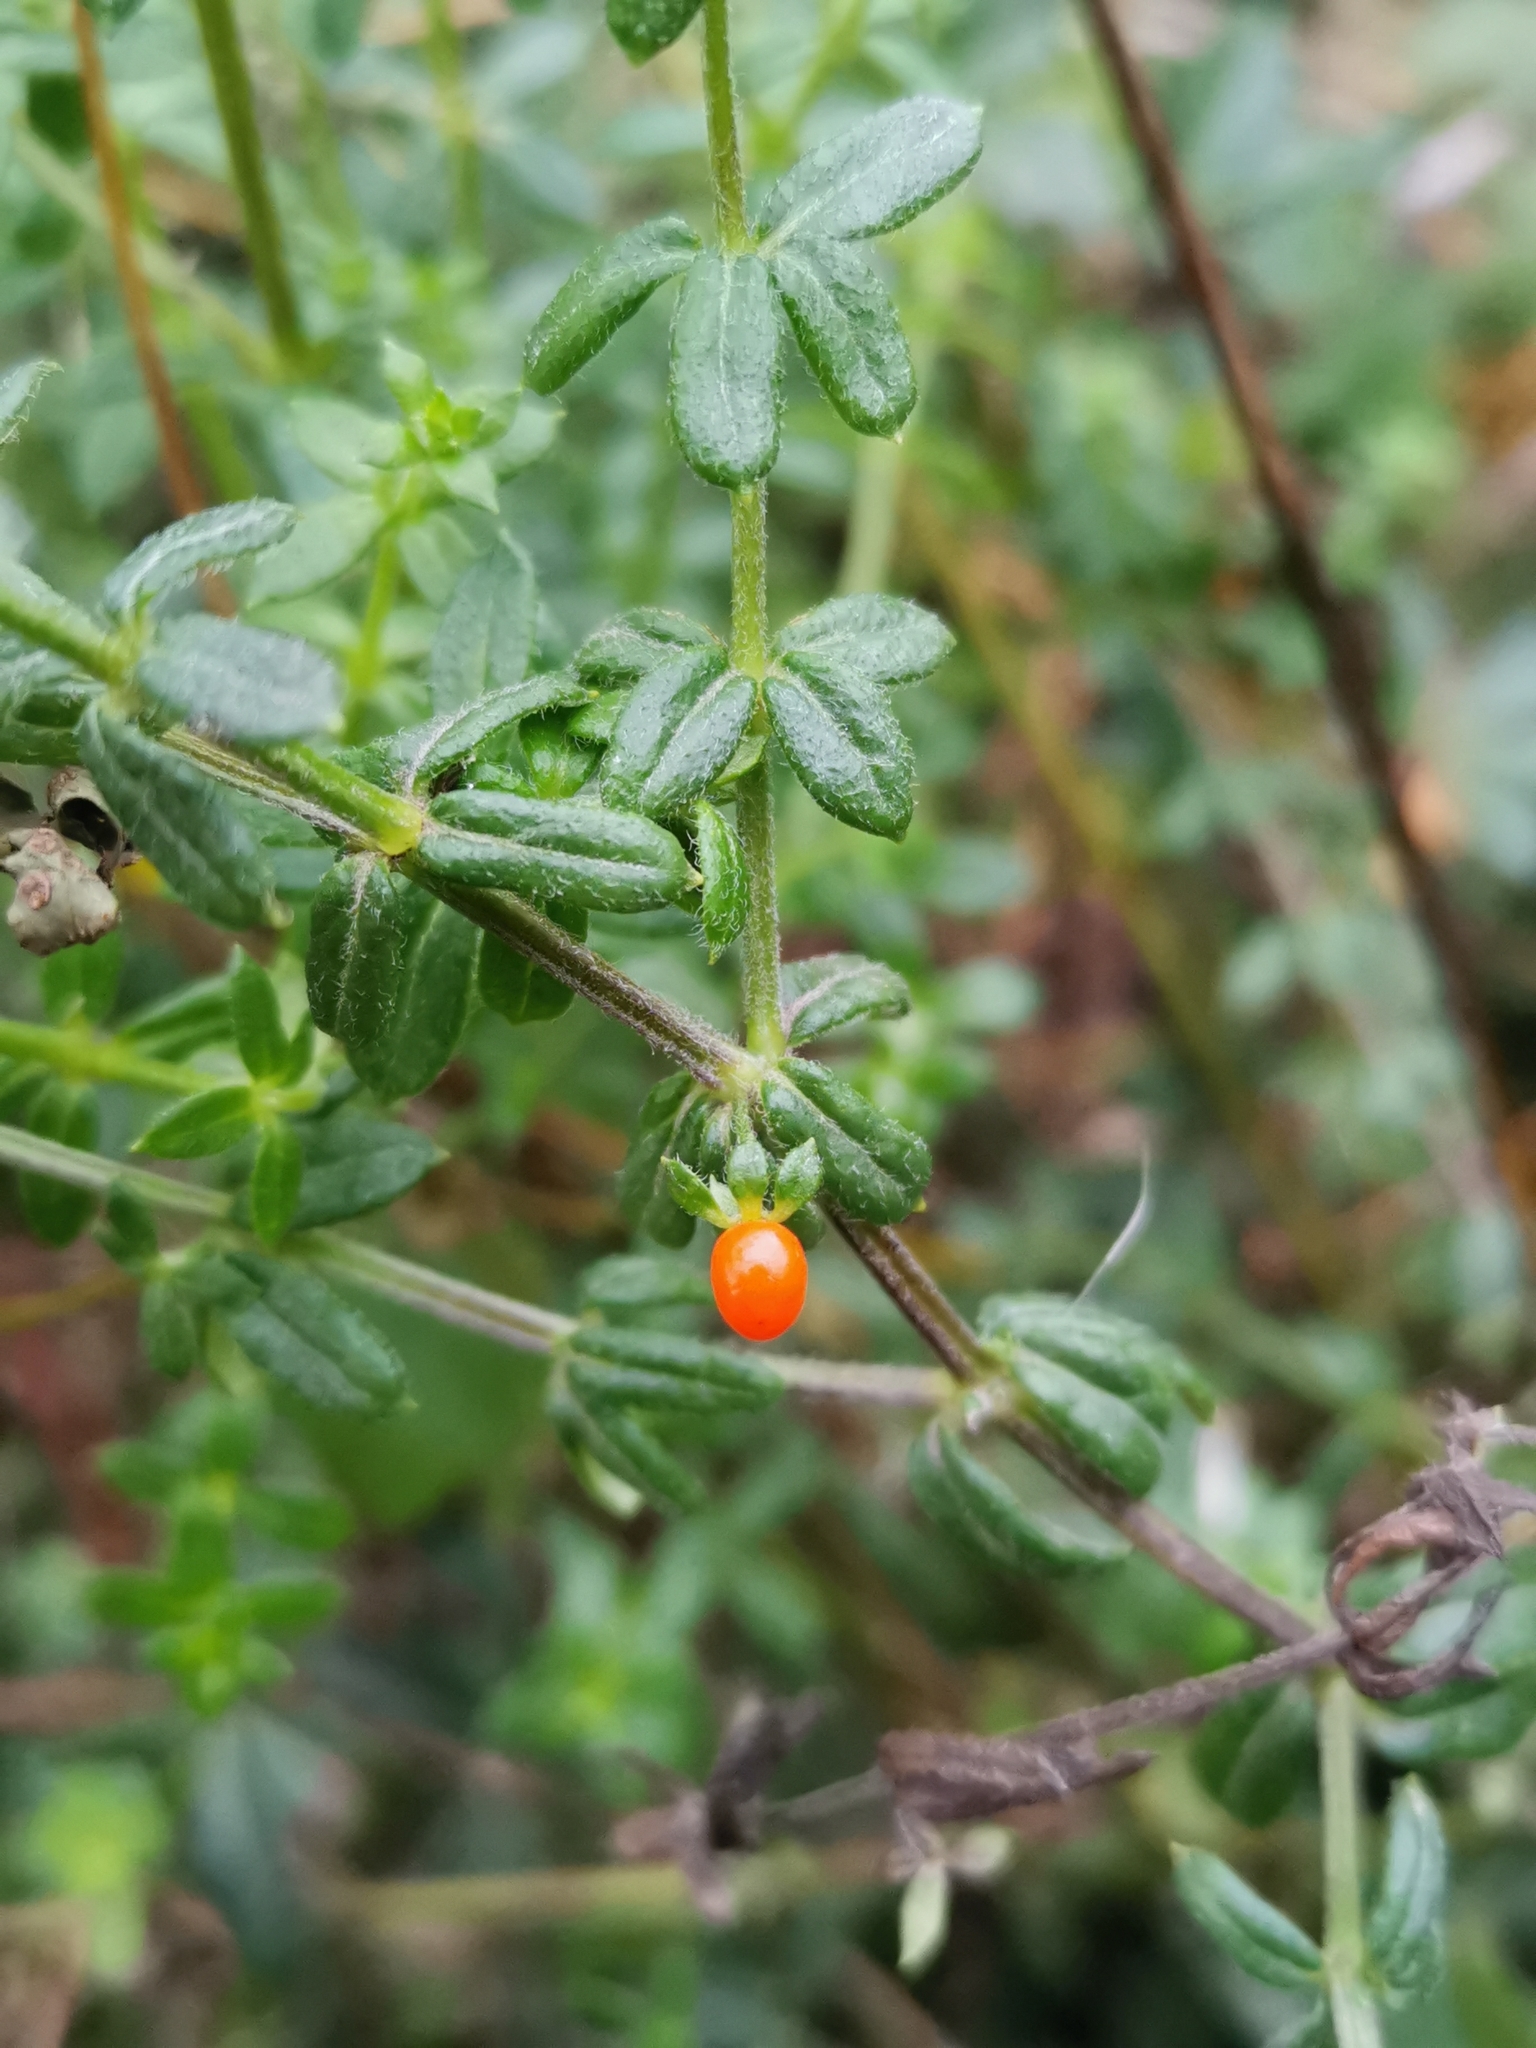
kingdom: Plantae
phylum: Tracheophyta
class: Magnoliopsida
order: Gentianales
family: Rubiaceae
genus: Galium
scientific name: Galium hypocarpium
